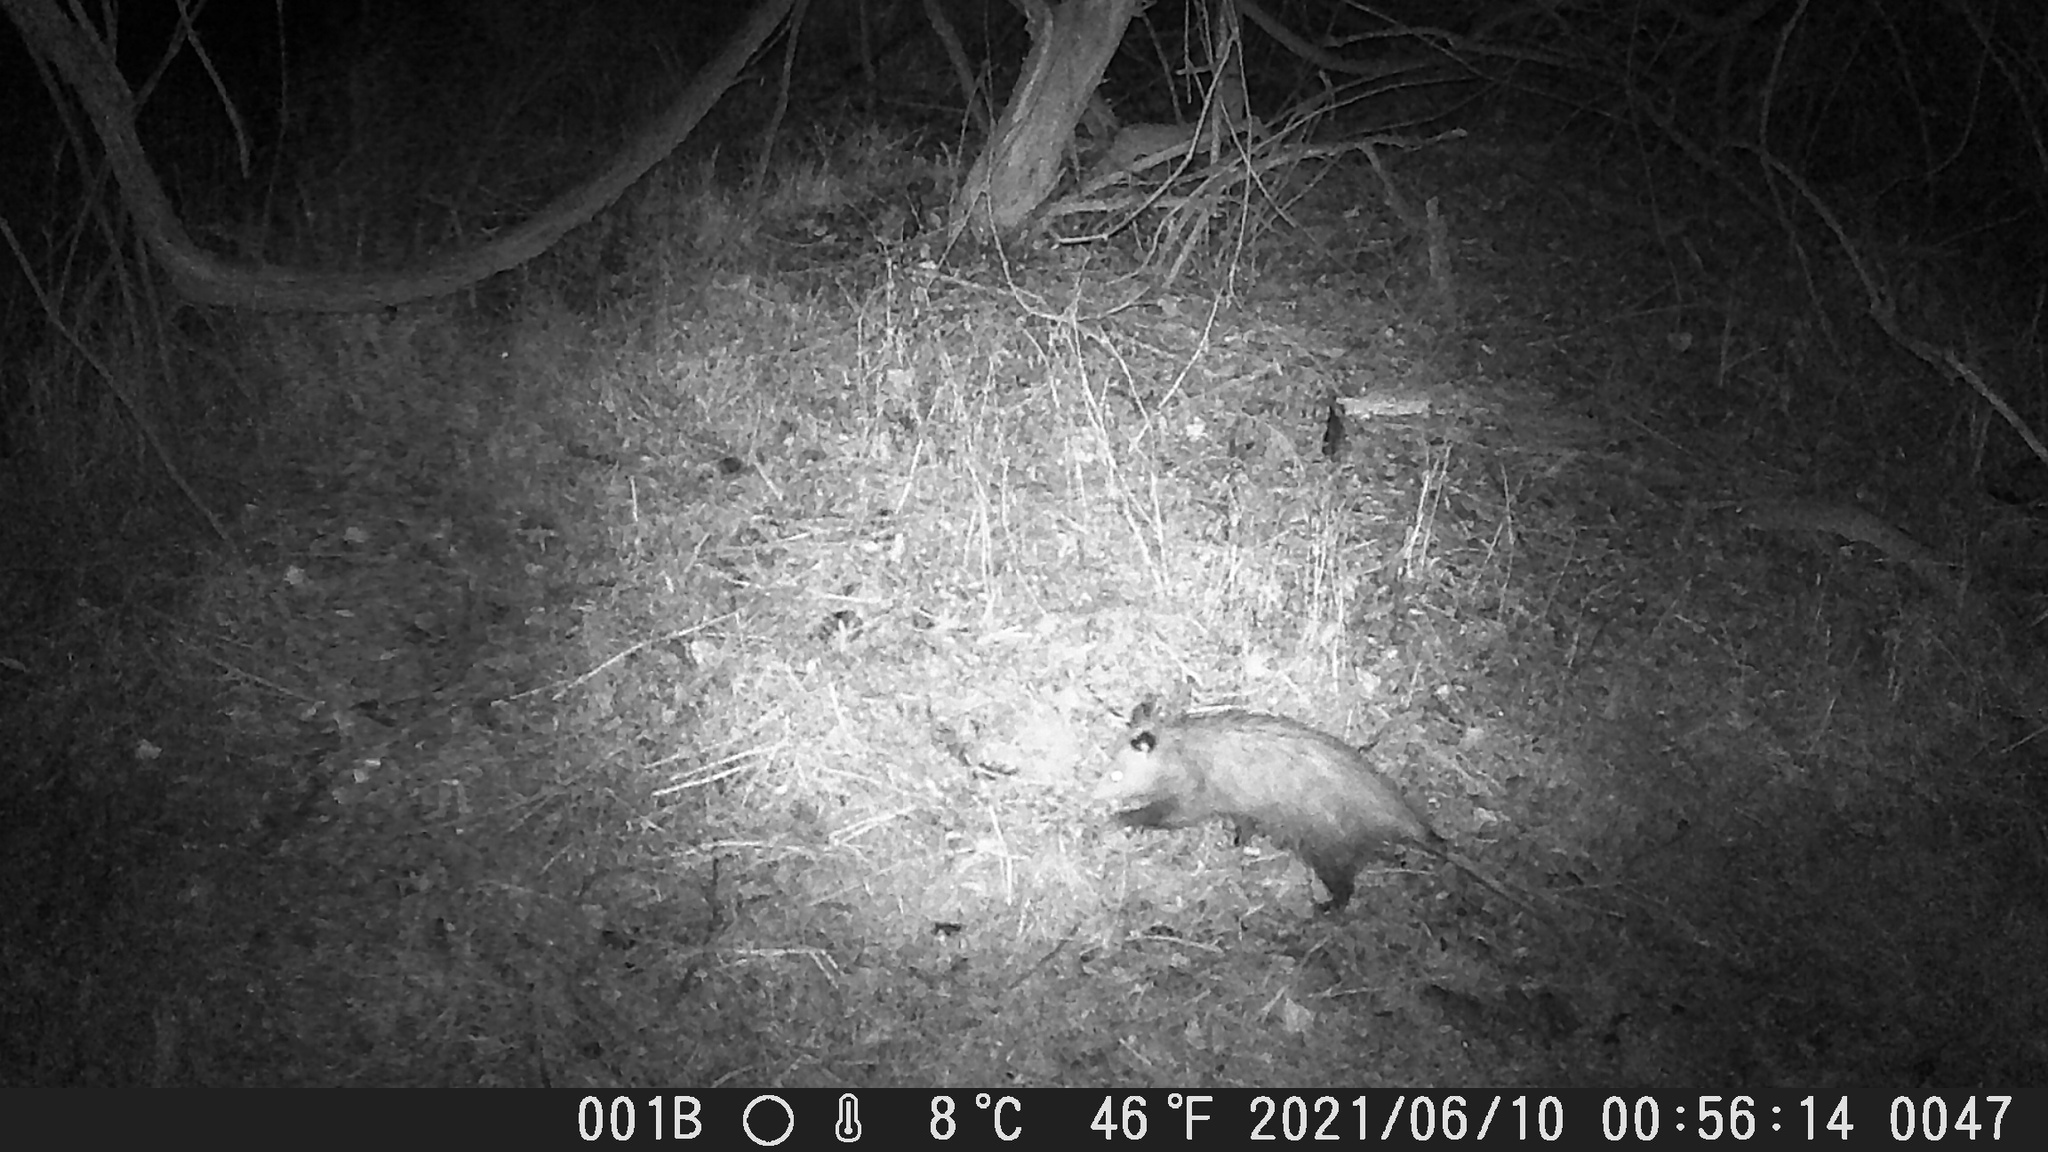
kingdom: Animalia
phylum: Chordata
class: Mammalia
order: Didelphimorphia
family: Didelphidae
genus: Didelphis
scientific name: Didelphis virginiana
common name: Virginia opossum
